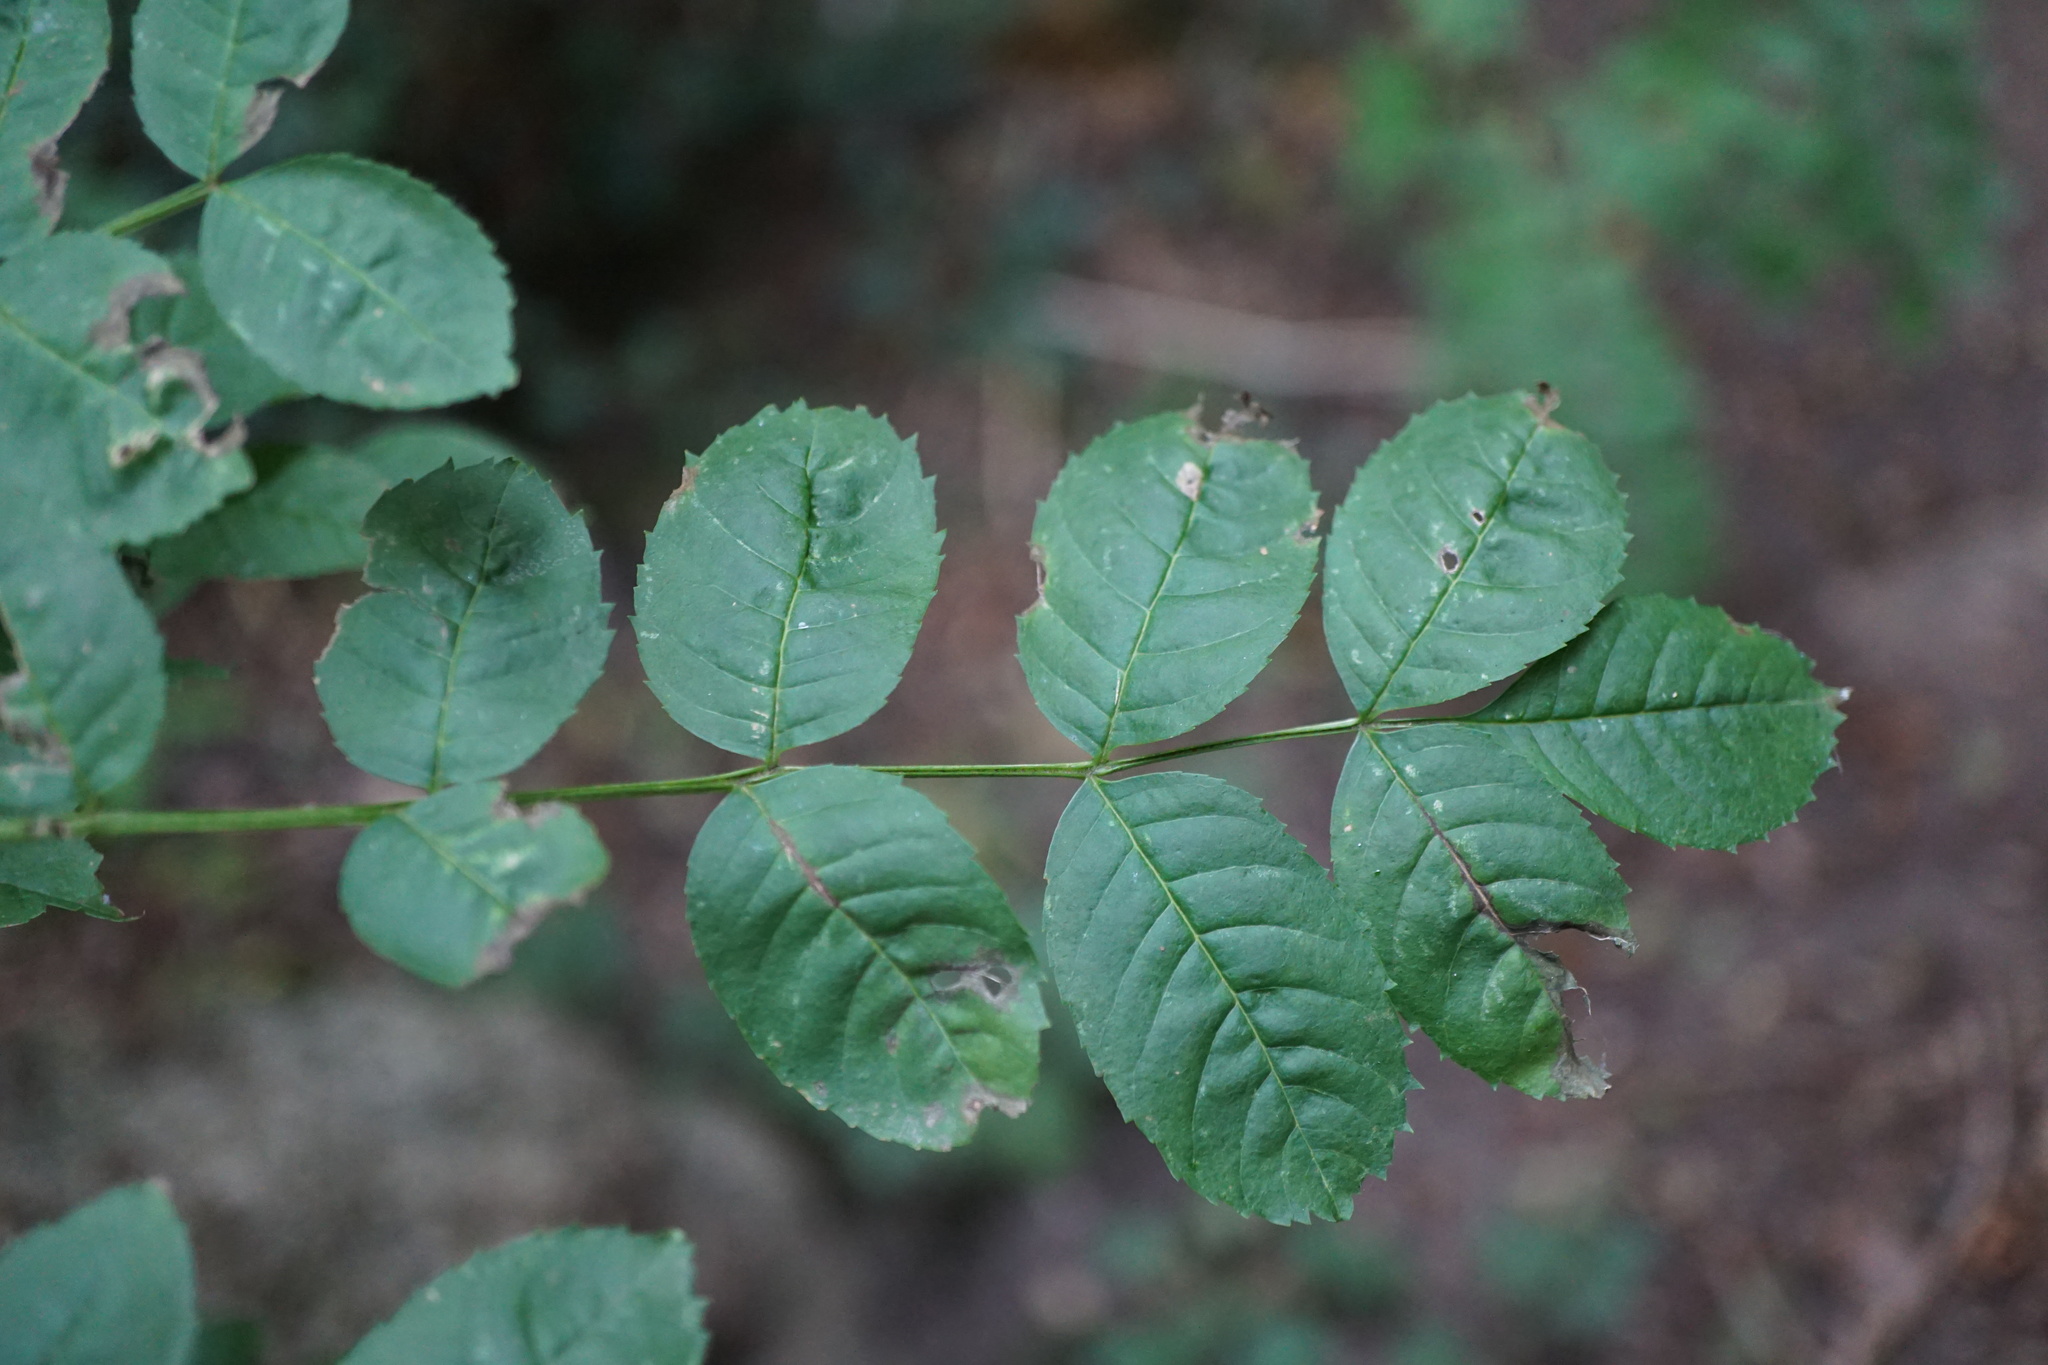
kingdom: Plantae
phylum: Tracheophyta
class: Magnoliopsida
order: Lamiales
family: Oleaceae
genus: Fraxinus
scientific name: Fraxinus excelsior
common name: European ash
